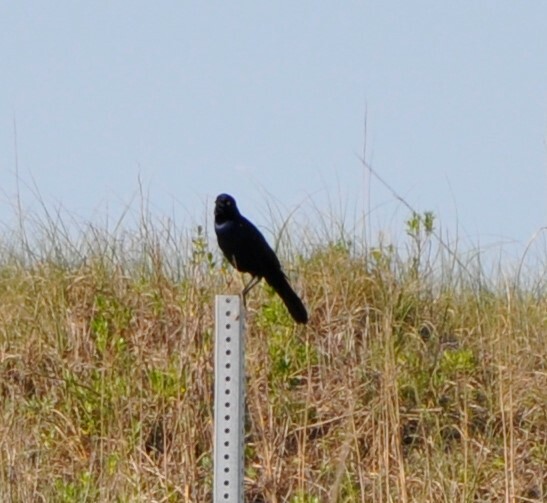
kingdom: Animalia
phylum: Chordata
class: Aves
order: Passeriformes
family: Icteridae
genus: Quiscalus
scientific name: Quiscalus major
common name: Boat-tailed grackle
